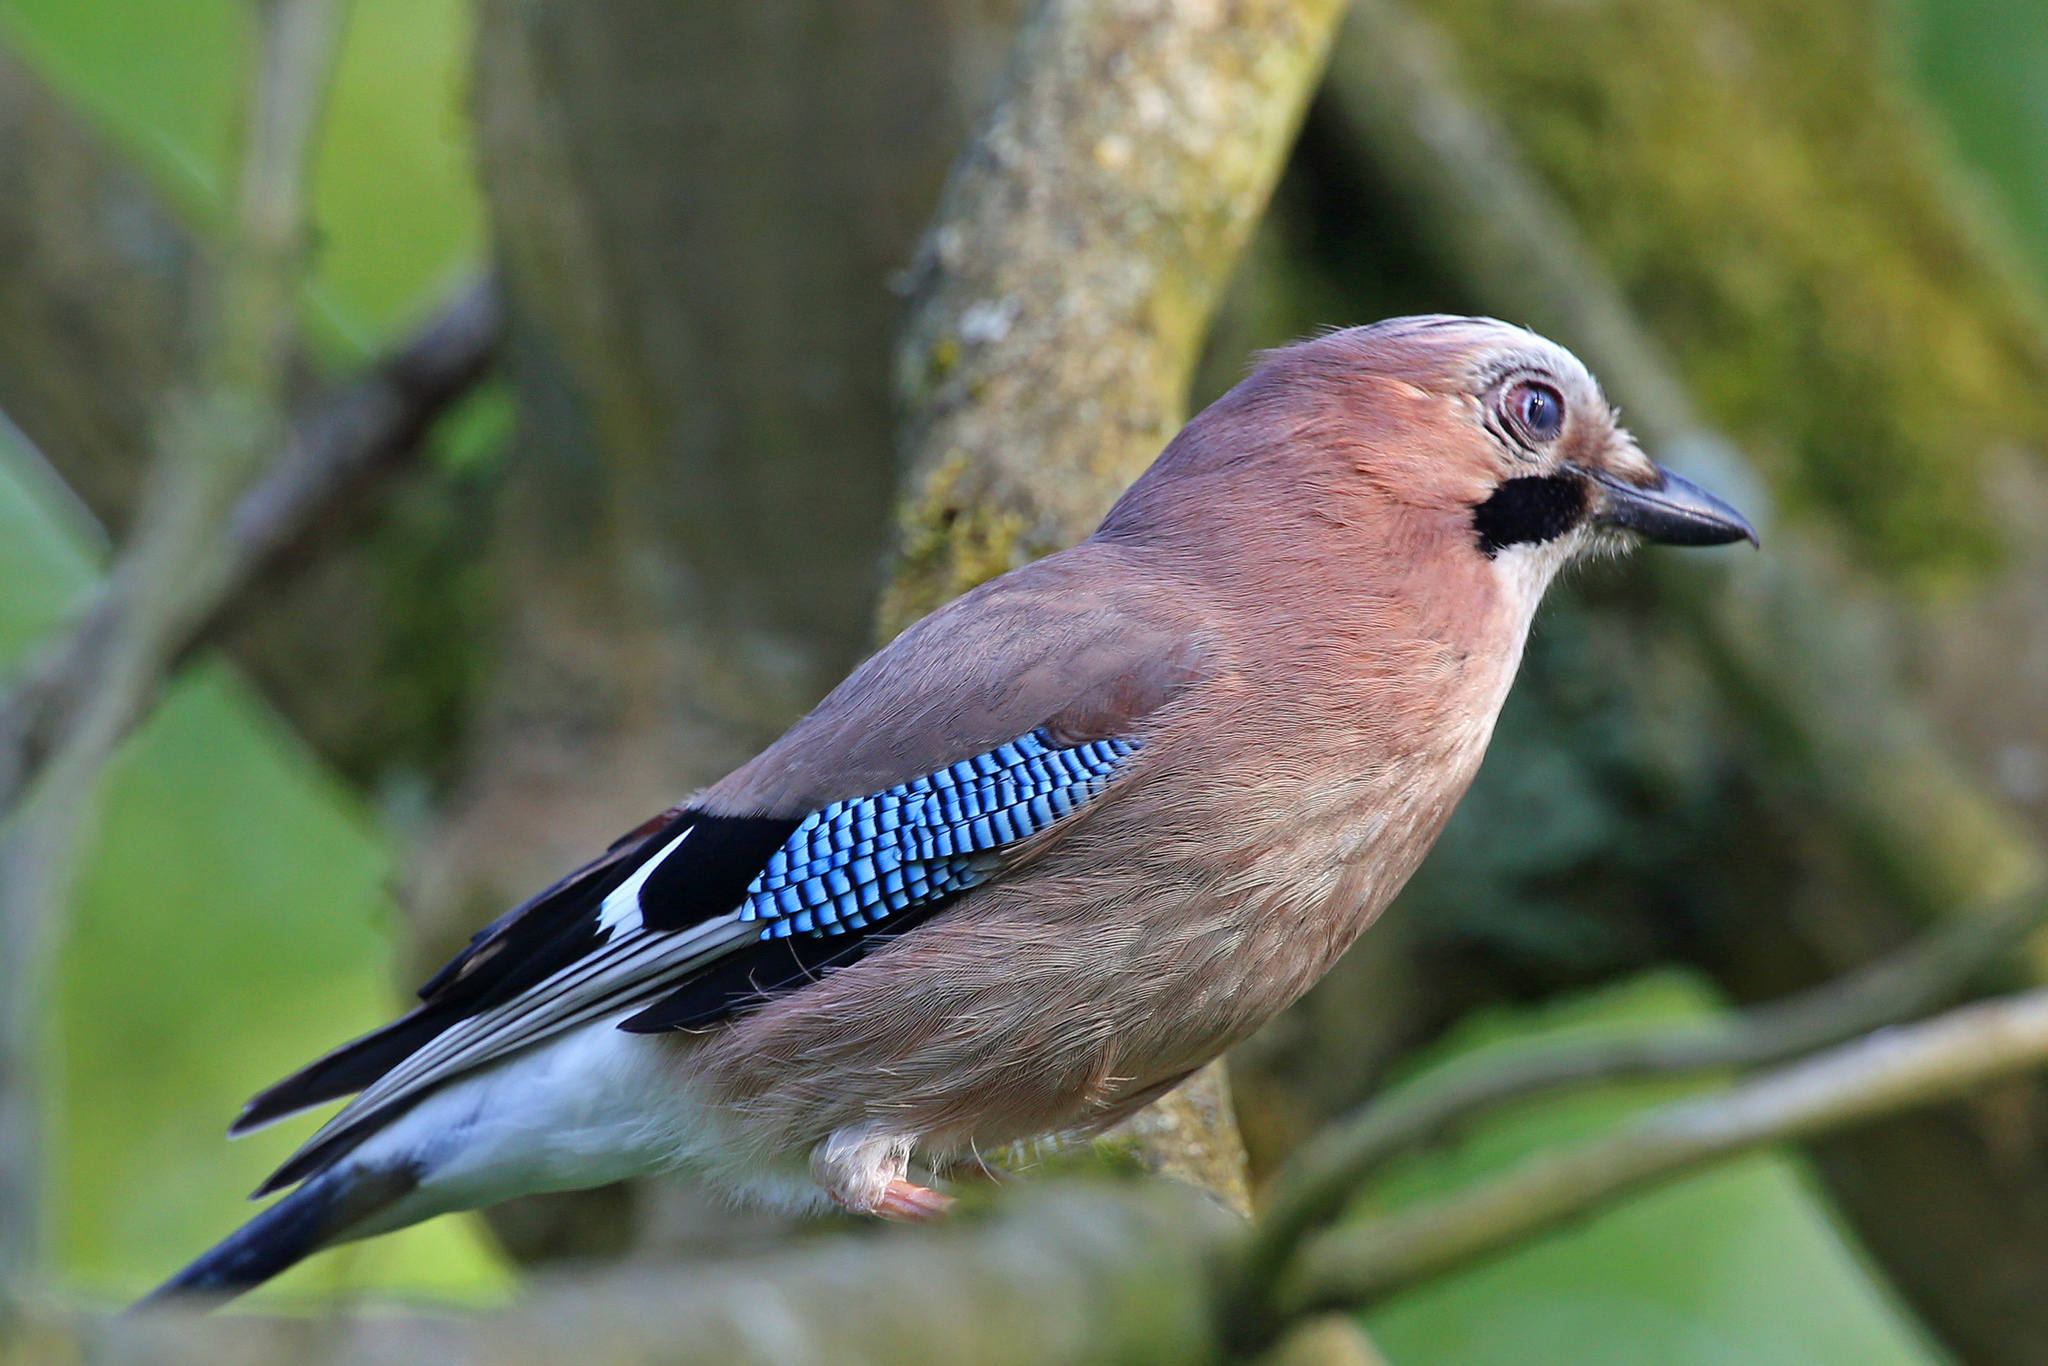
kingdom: Animalia
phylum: Chordata
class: Aves
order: Passeriformes
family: Corvidae
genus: Garrulus
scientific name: Garrulus glandarius
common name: Eurasian jay
